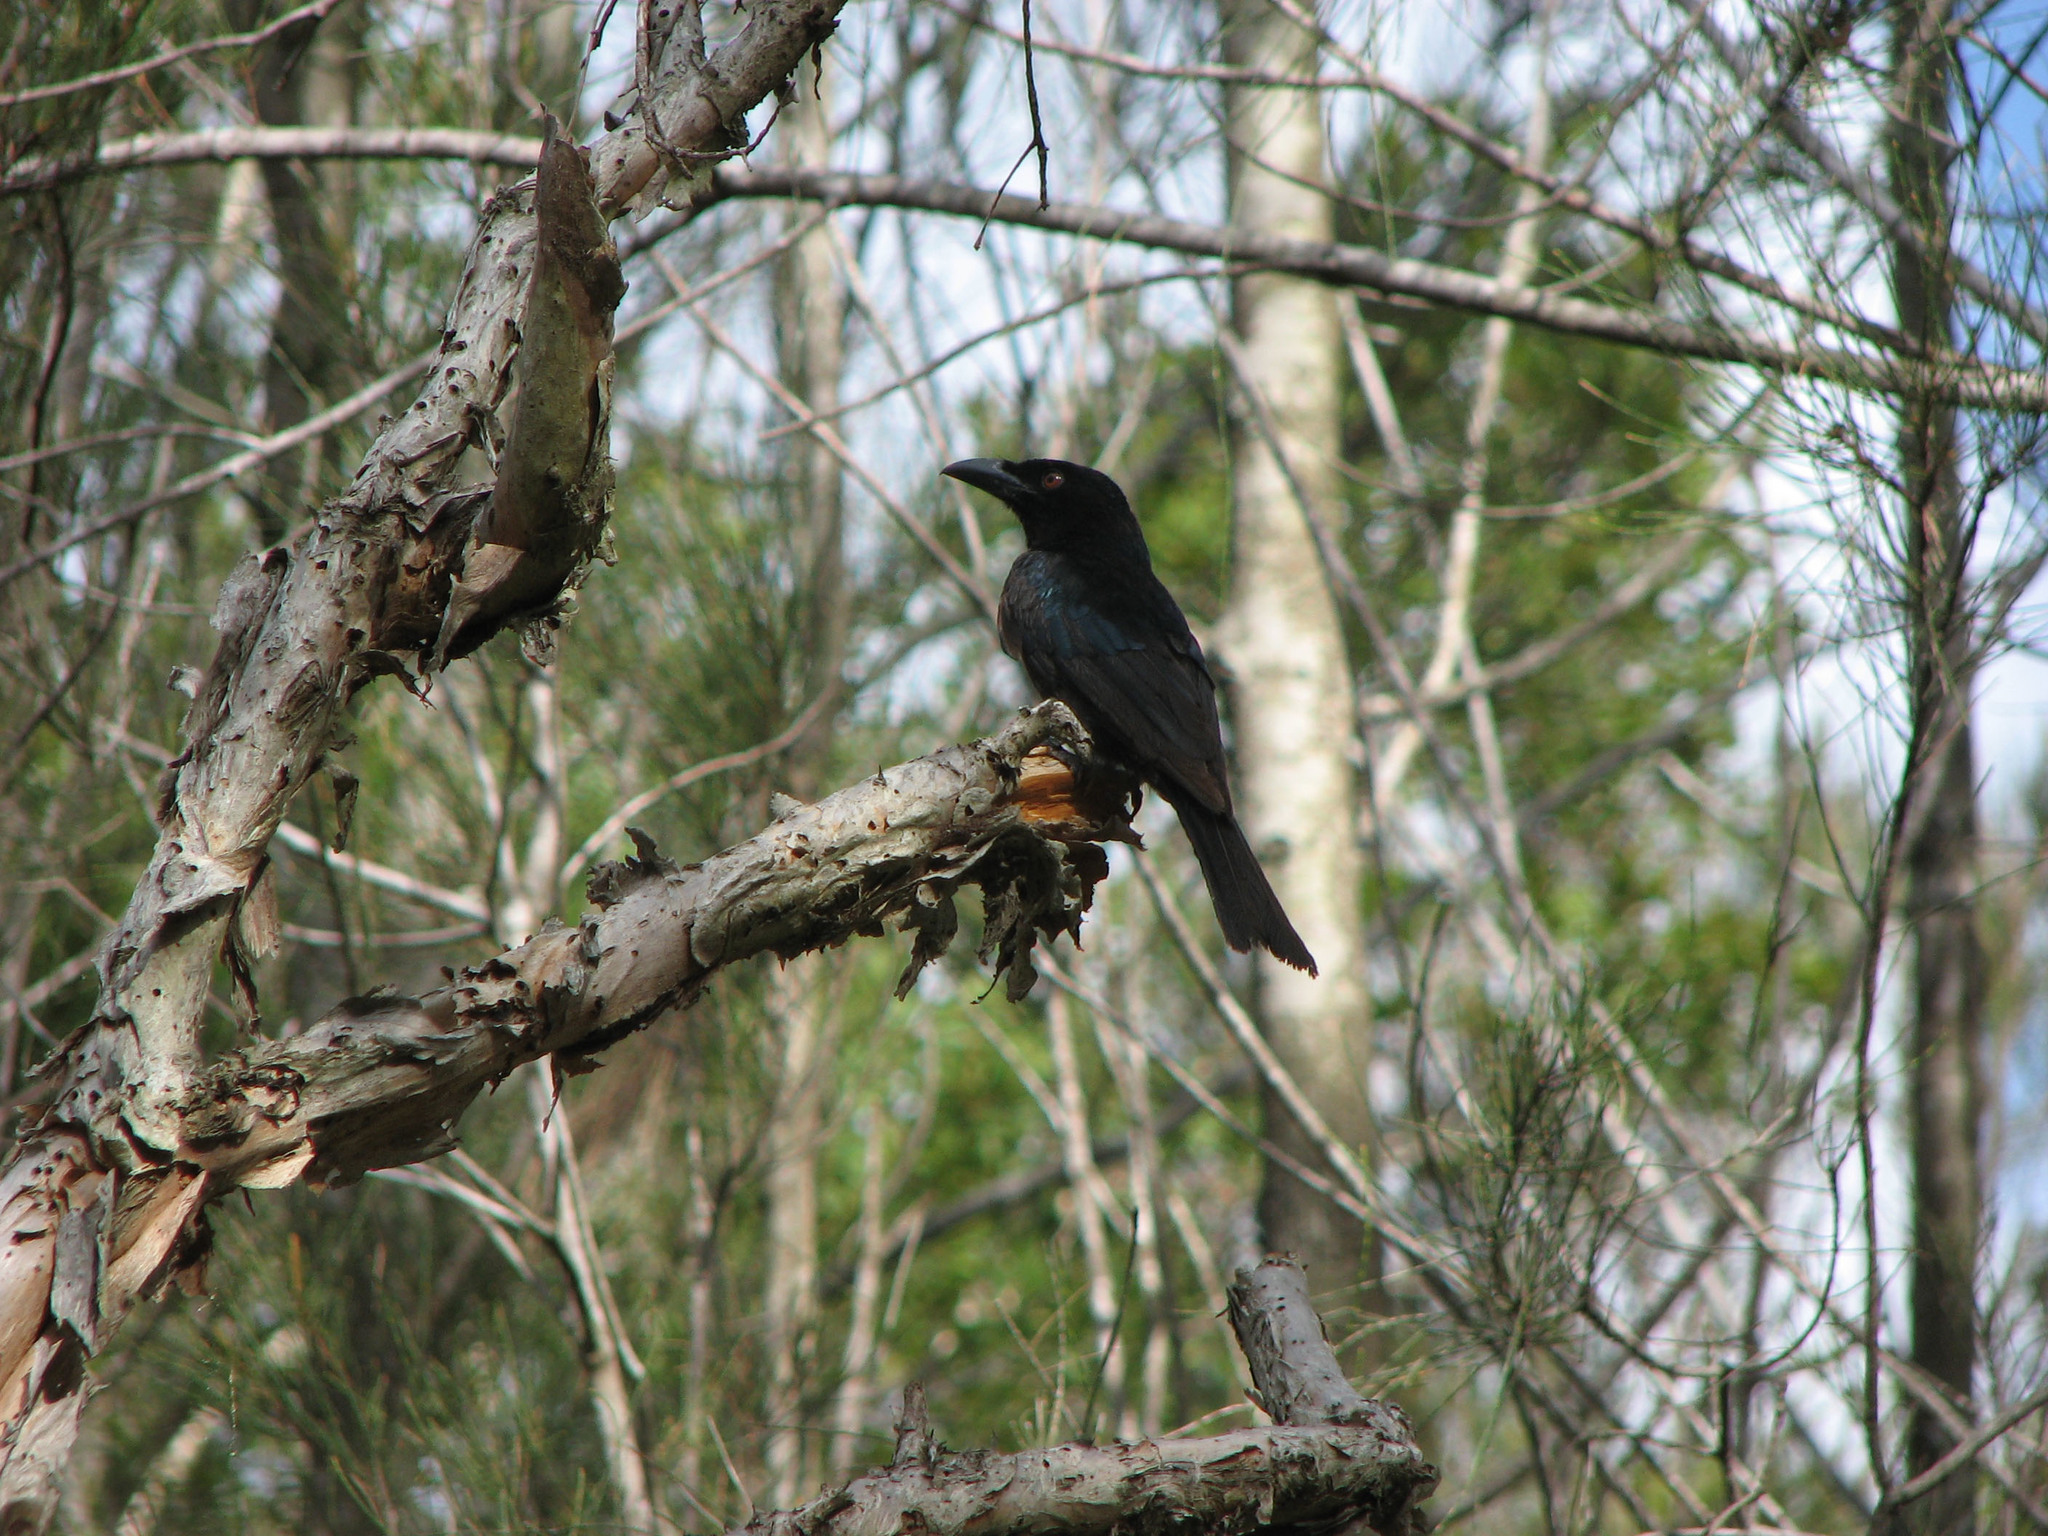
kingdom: Animalia
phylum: Chordata
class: Aves
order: Passeriformes
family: Dicruridae
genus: Dicrurus
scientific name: Dicrurus bracteatus
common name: Spangled drongo
